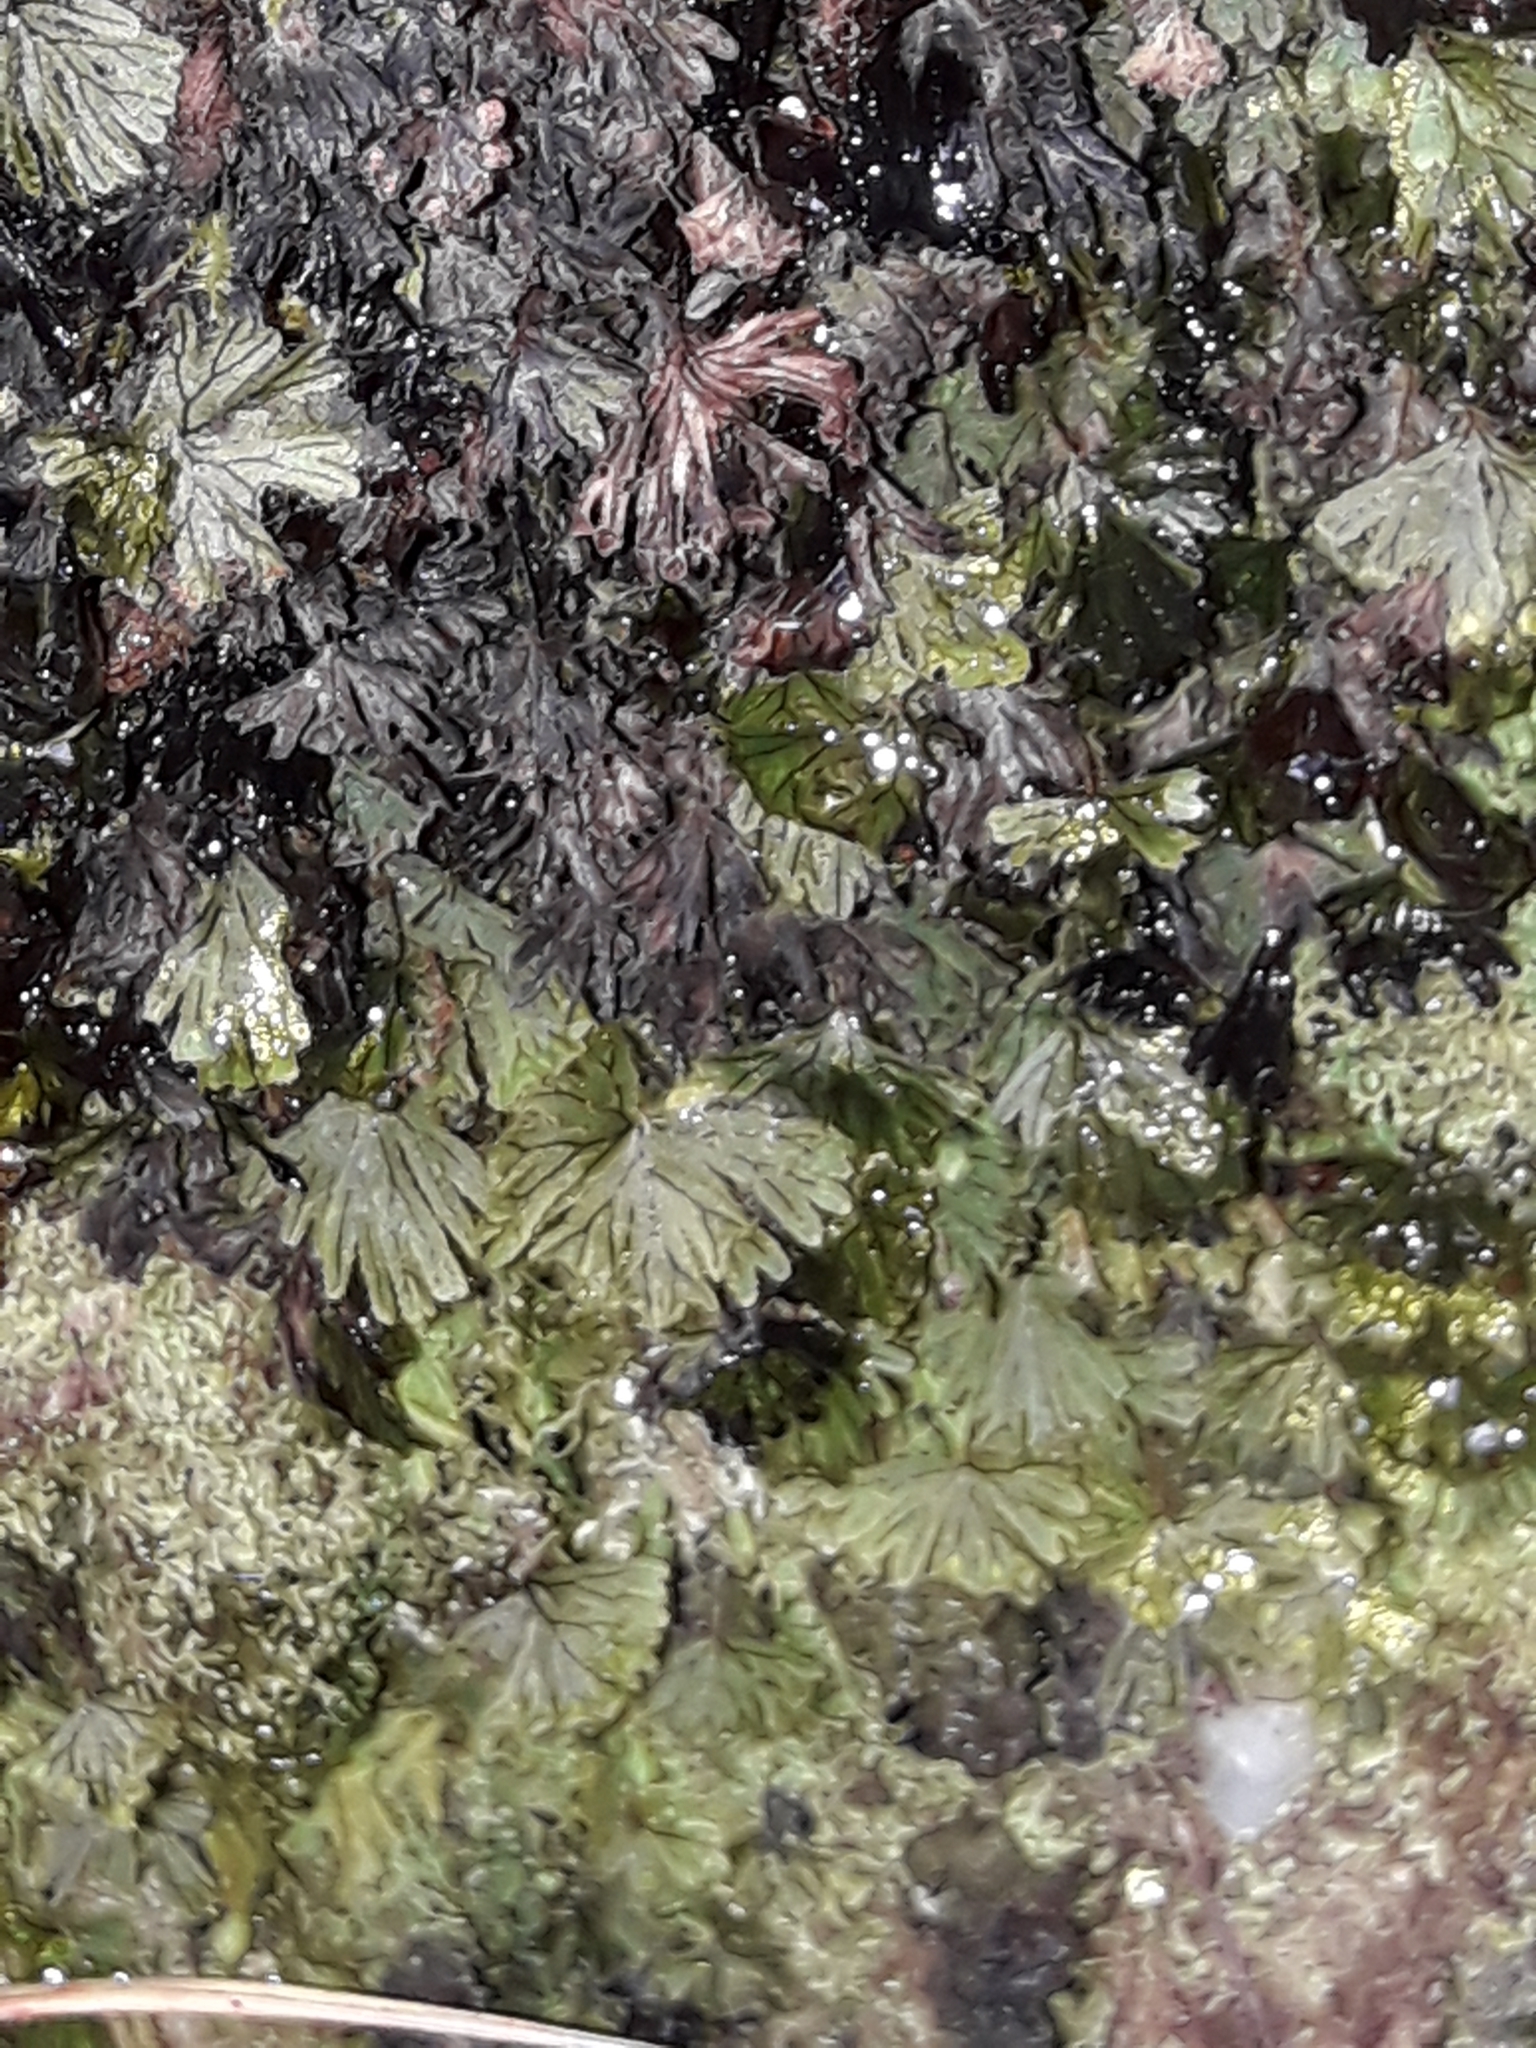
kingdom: Plantae
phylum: Tracheophyta
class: Polypodiopsida
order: Hymenophyllales
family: Hymenophyllaceae
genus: Hymenophyllum
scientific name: Hymenophyllum lyallii
